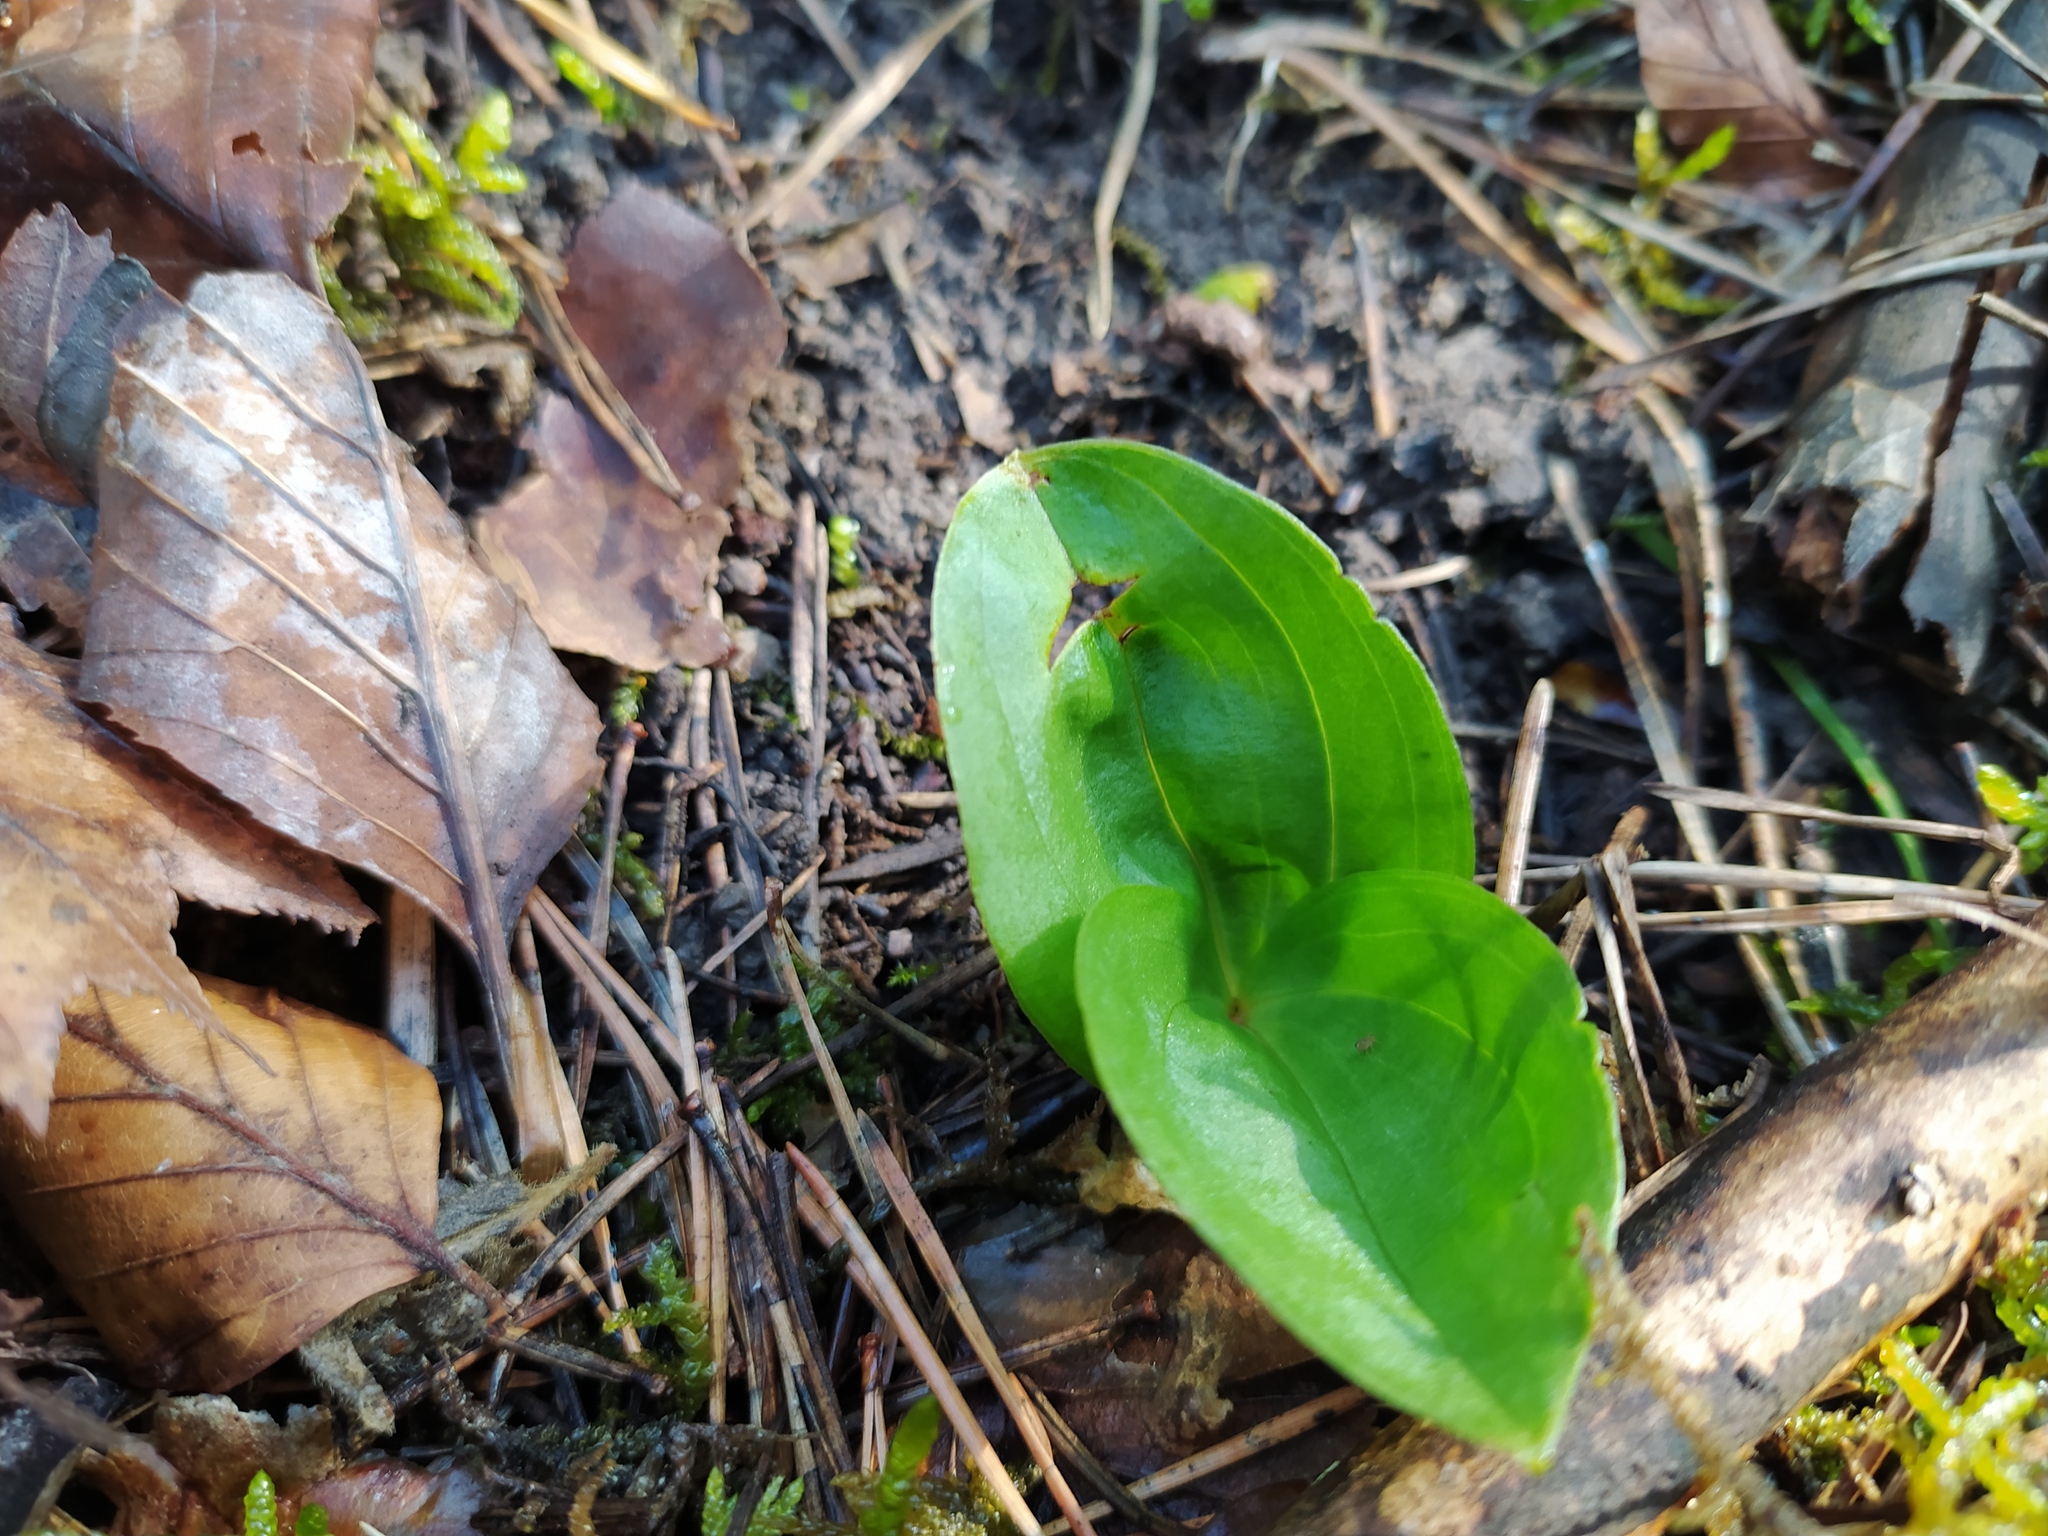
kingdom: Plantae
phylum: Tracheophyta
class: Liliopsida
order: Asparagales
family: Orchidaceae
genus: Neottia
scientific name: Neottia ovata
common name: Common twayblade
